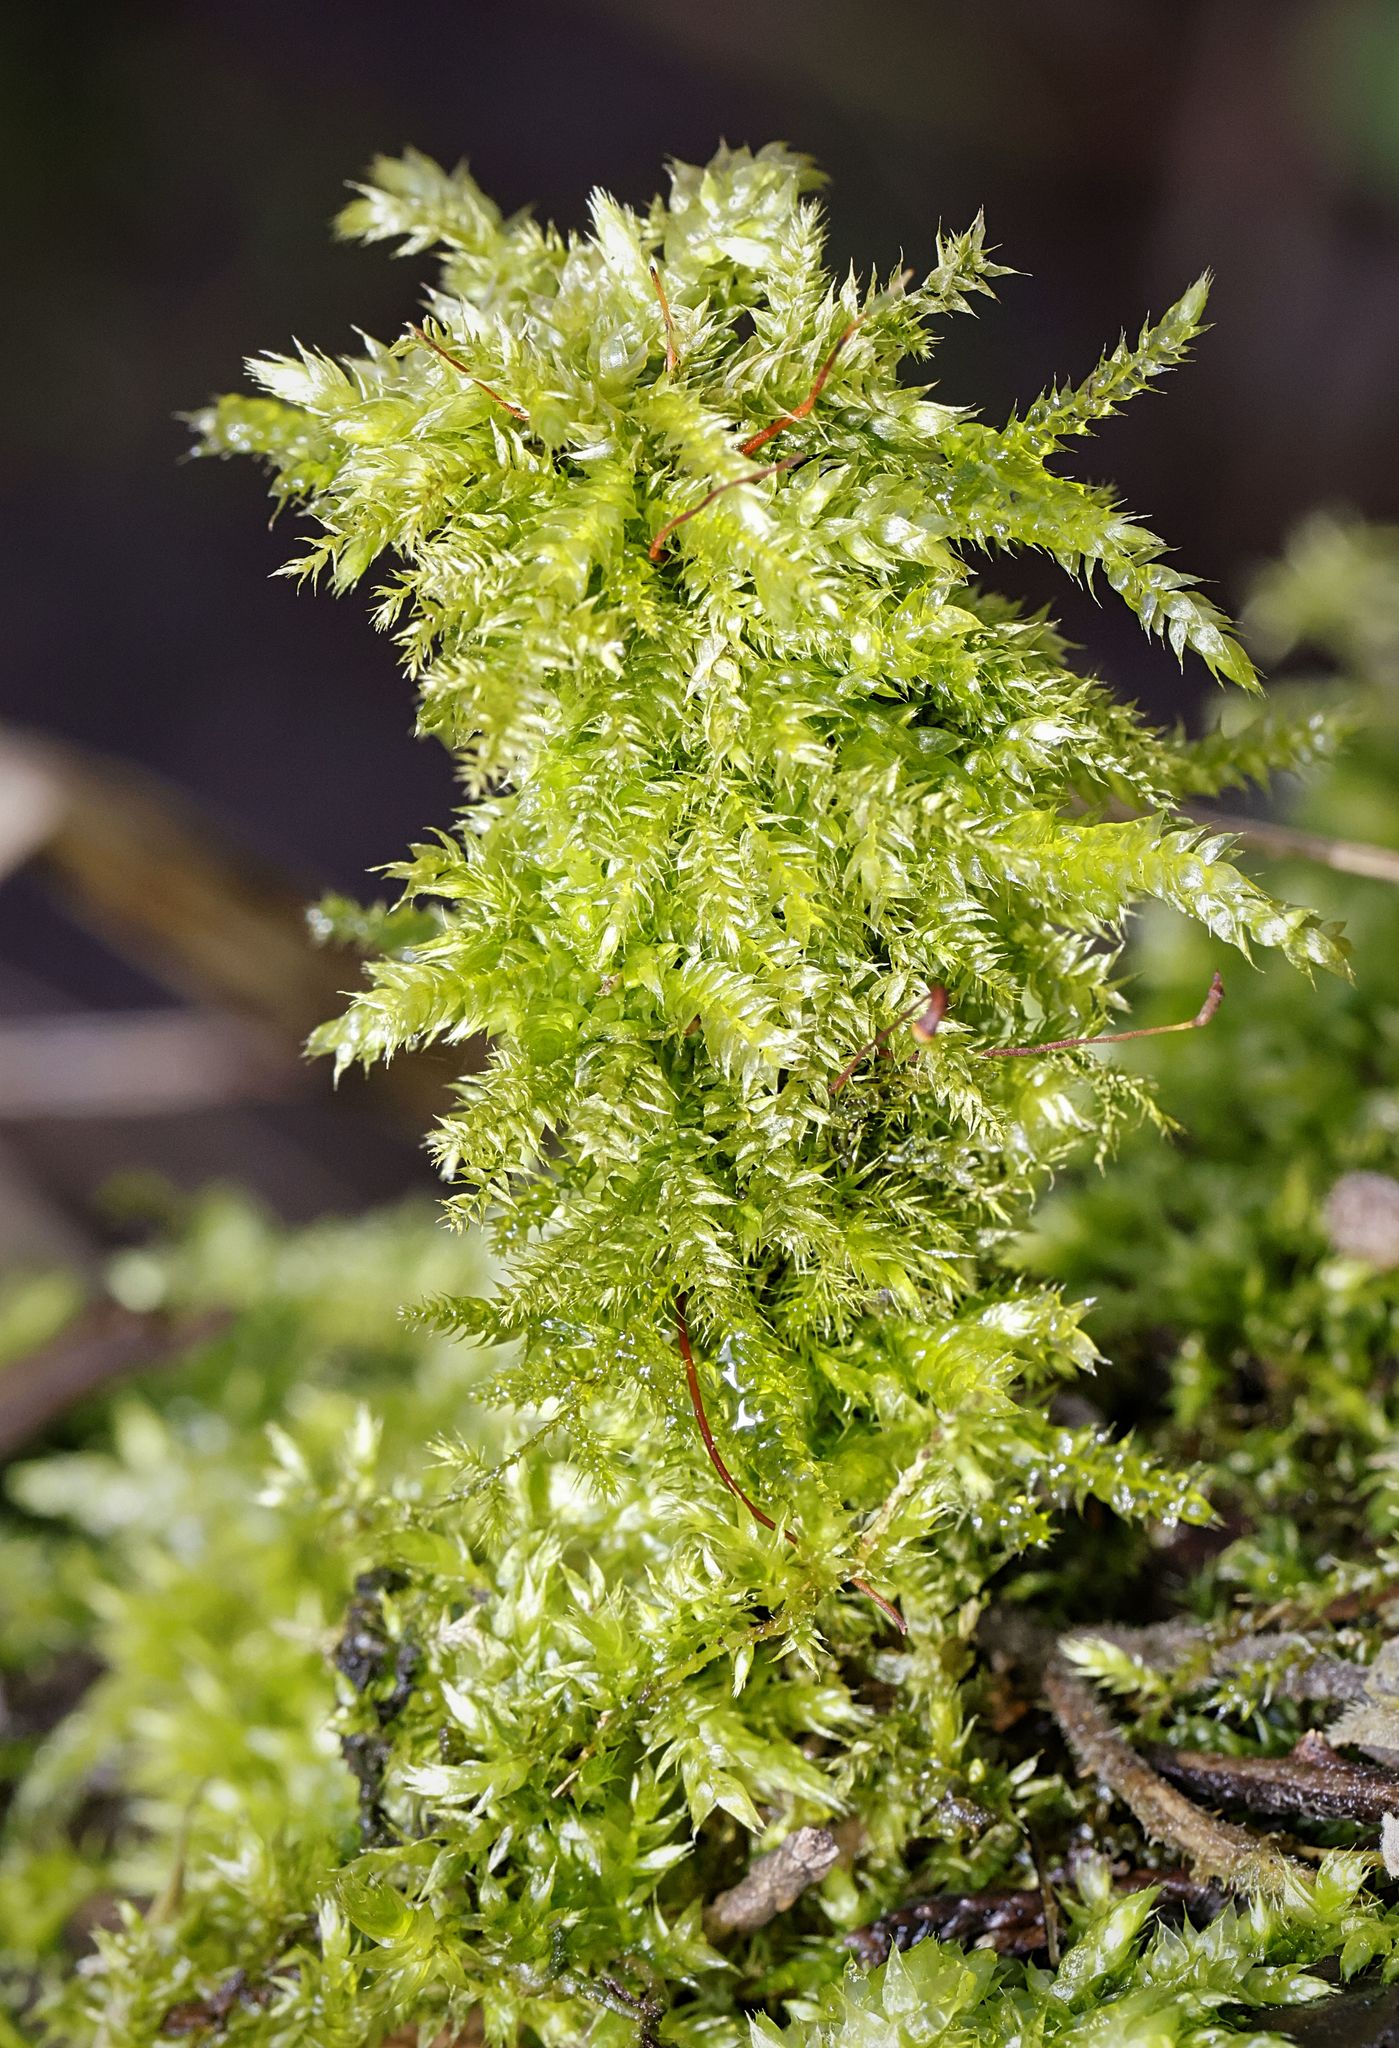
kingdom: Plantae
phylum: Bryophyta
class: Bryopsida
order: Hypnales
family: Brachytheciaceae
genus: Brachythecium
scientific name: Brachythecium rutabulum
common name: Rough-stalked feather-moss
